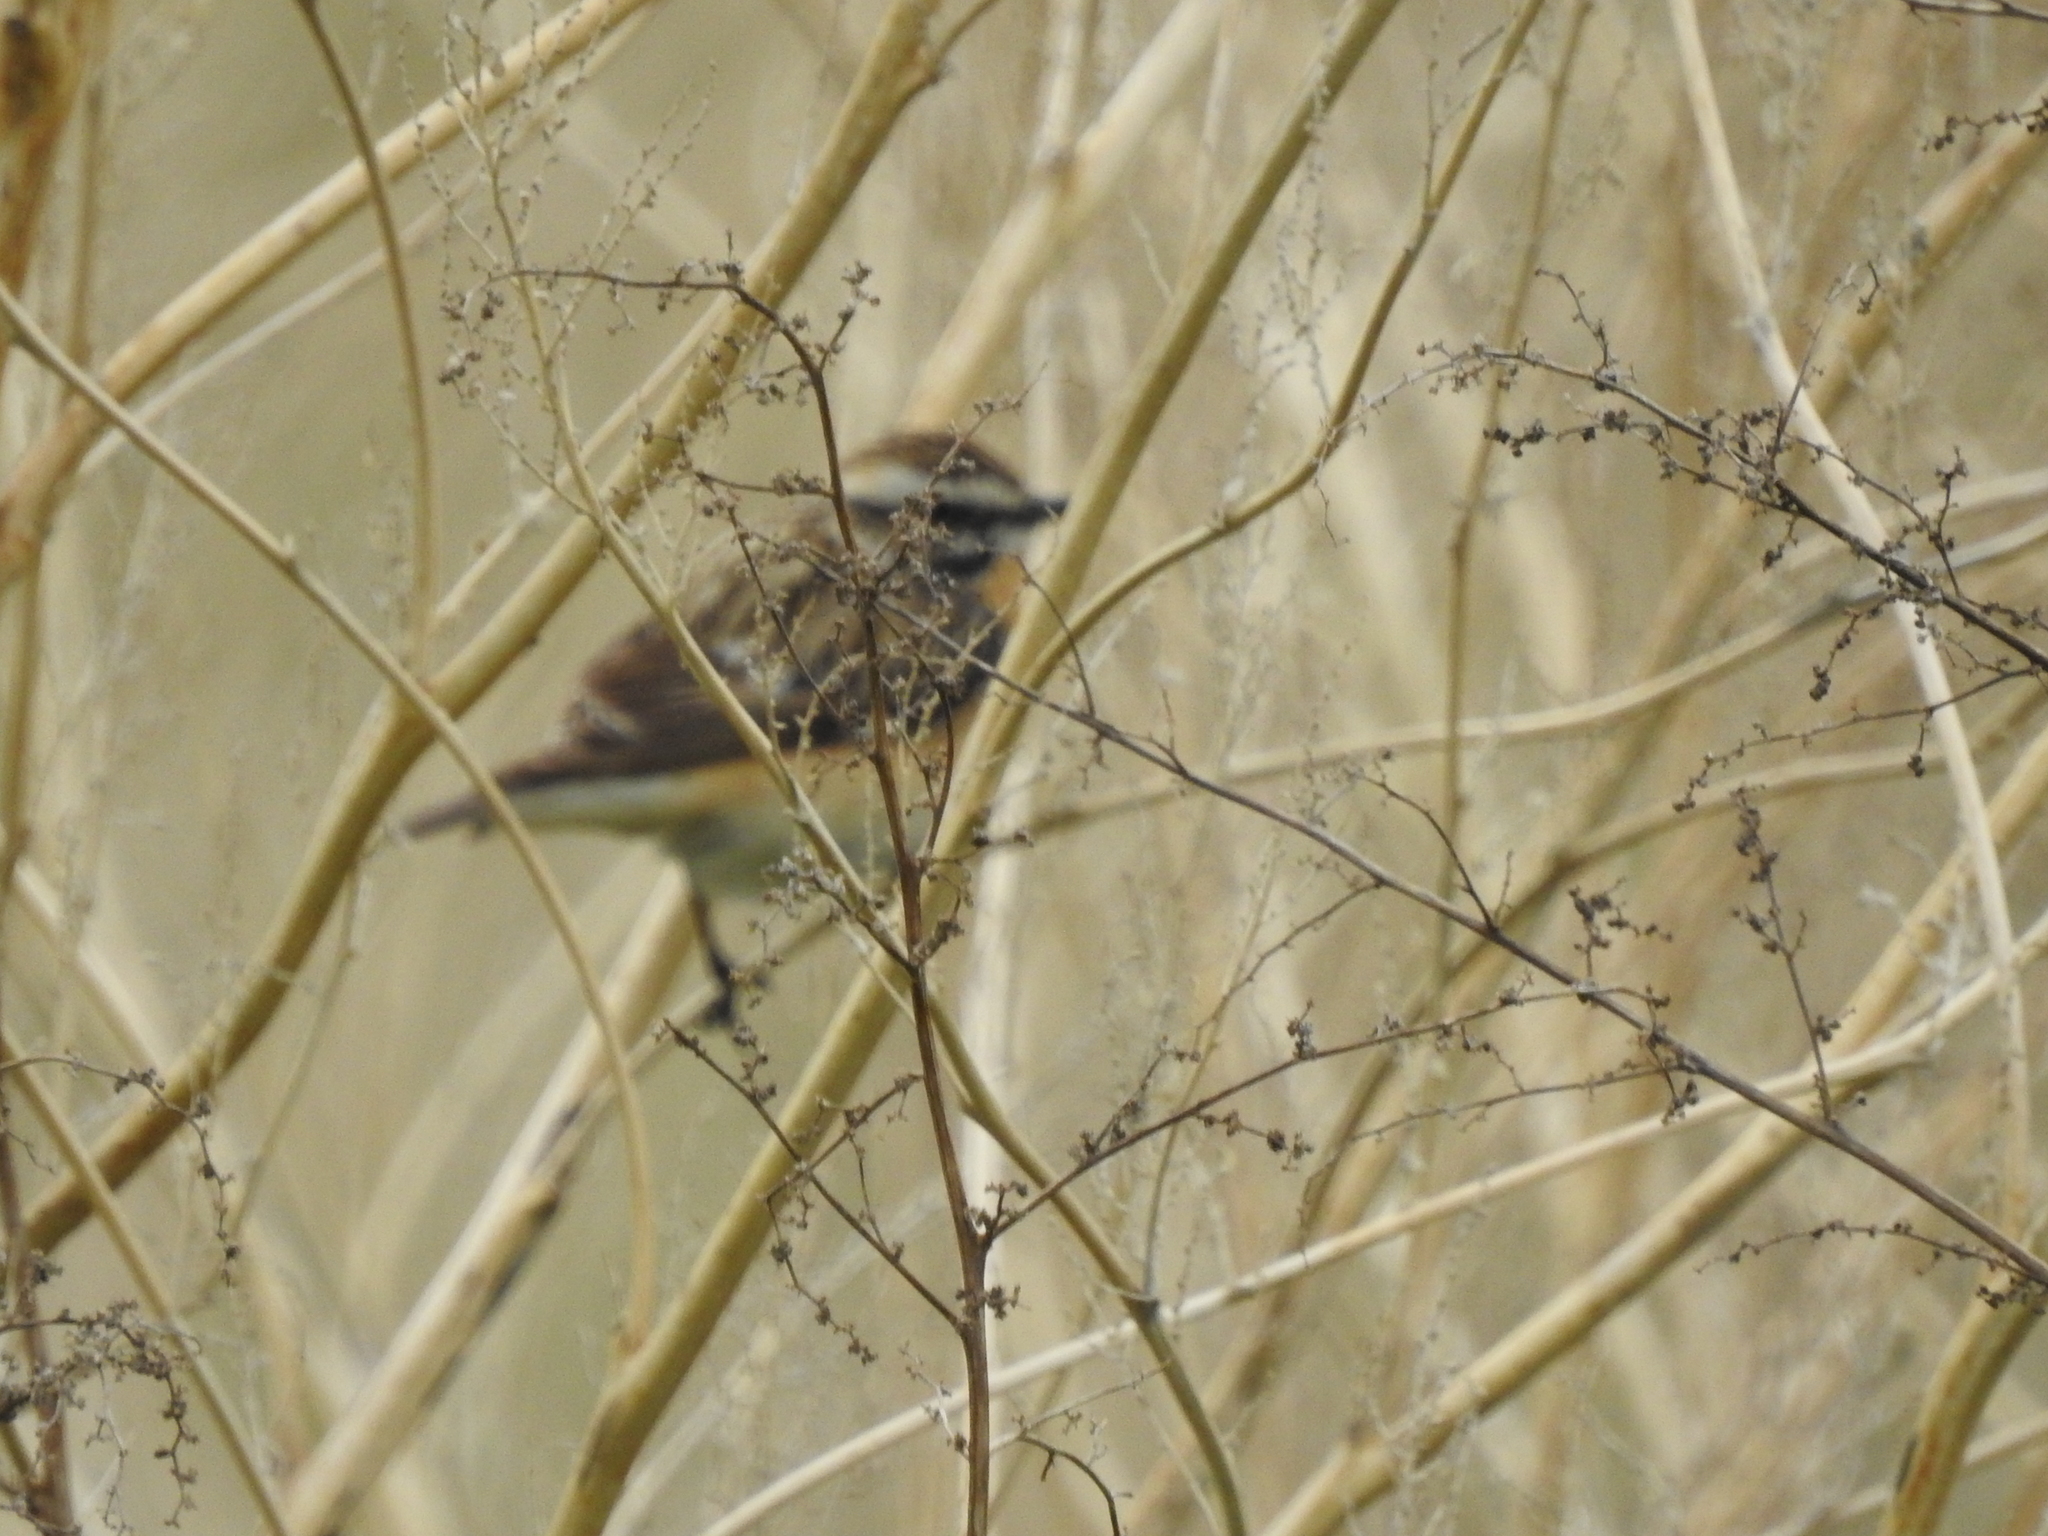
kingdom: Animalia
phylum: Chordata
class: Aves
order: Passeriformes
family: Muscicapidae
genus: Saxicola
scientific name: Saxicola rubetra
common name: Whinchat
